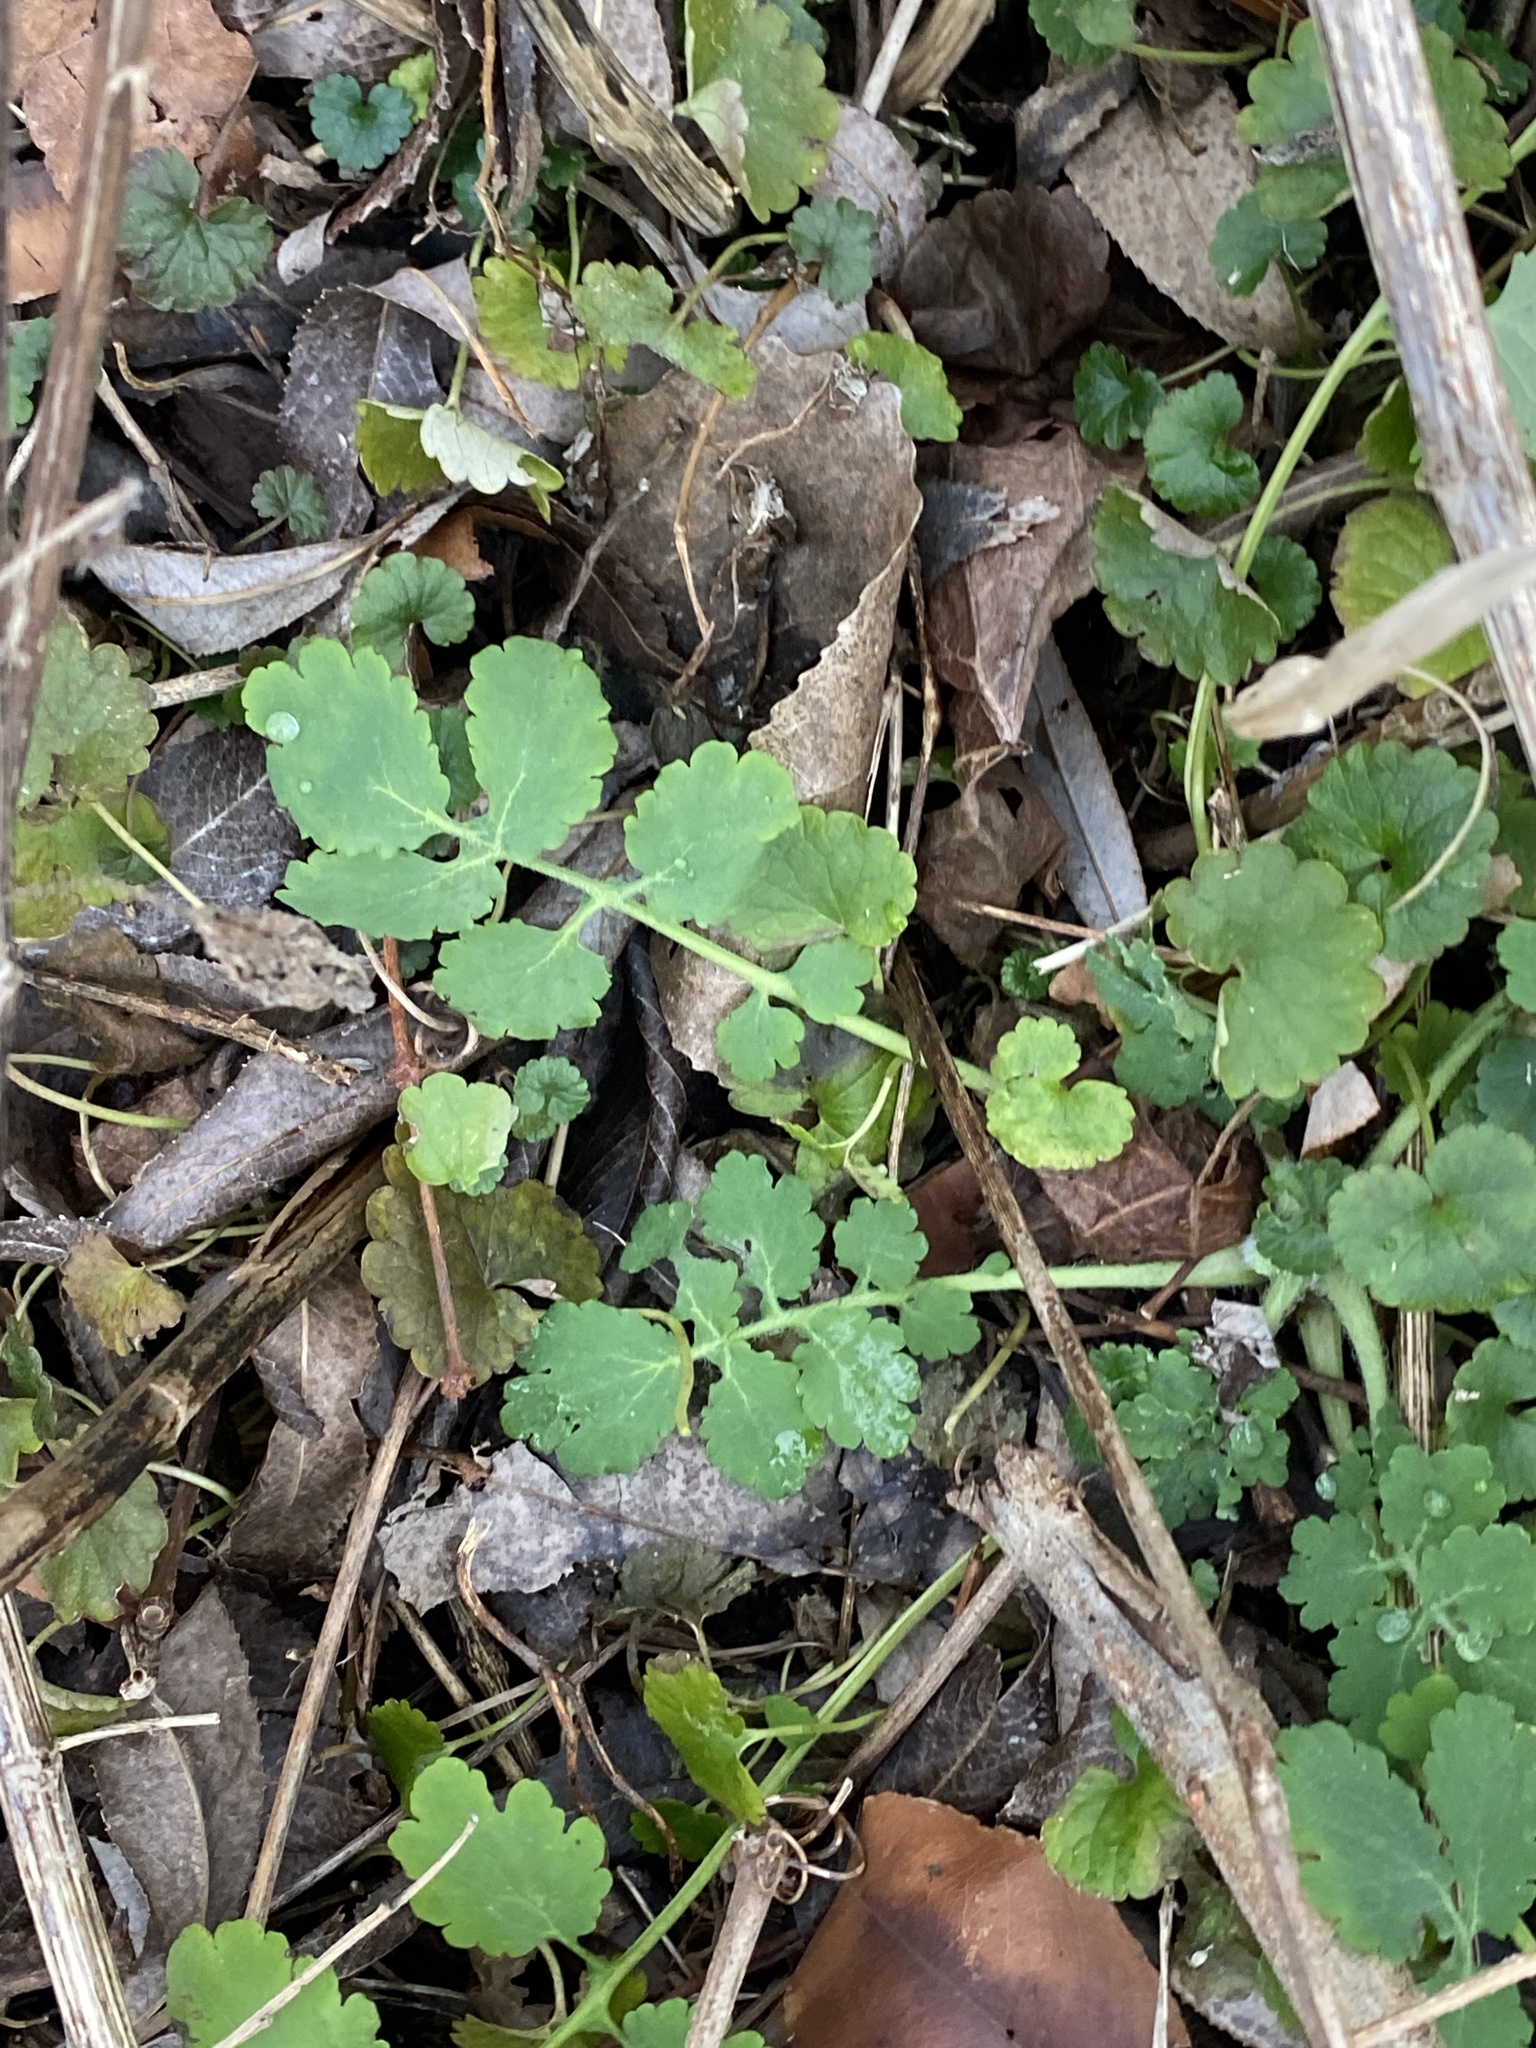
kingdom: Plantae
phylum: Tracheophyta
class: Magnoliopsida
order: Ranunculales
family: Papaveraceae
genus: Chelidonium
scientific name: Chelidonium majus
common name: Greater celandine
